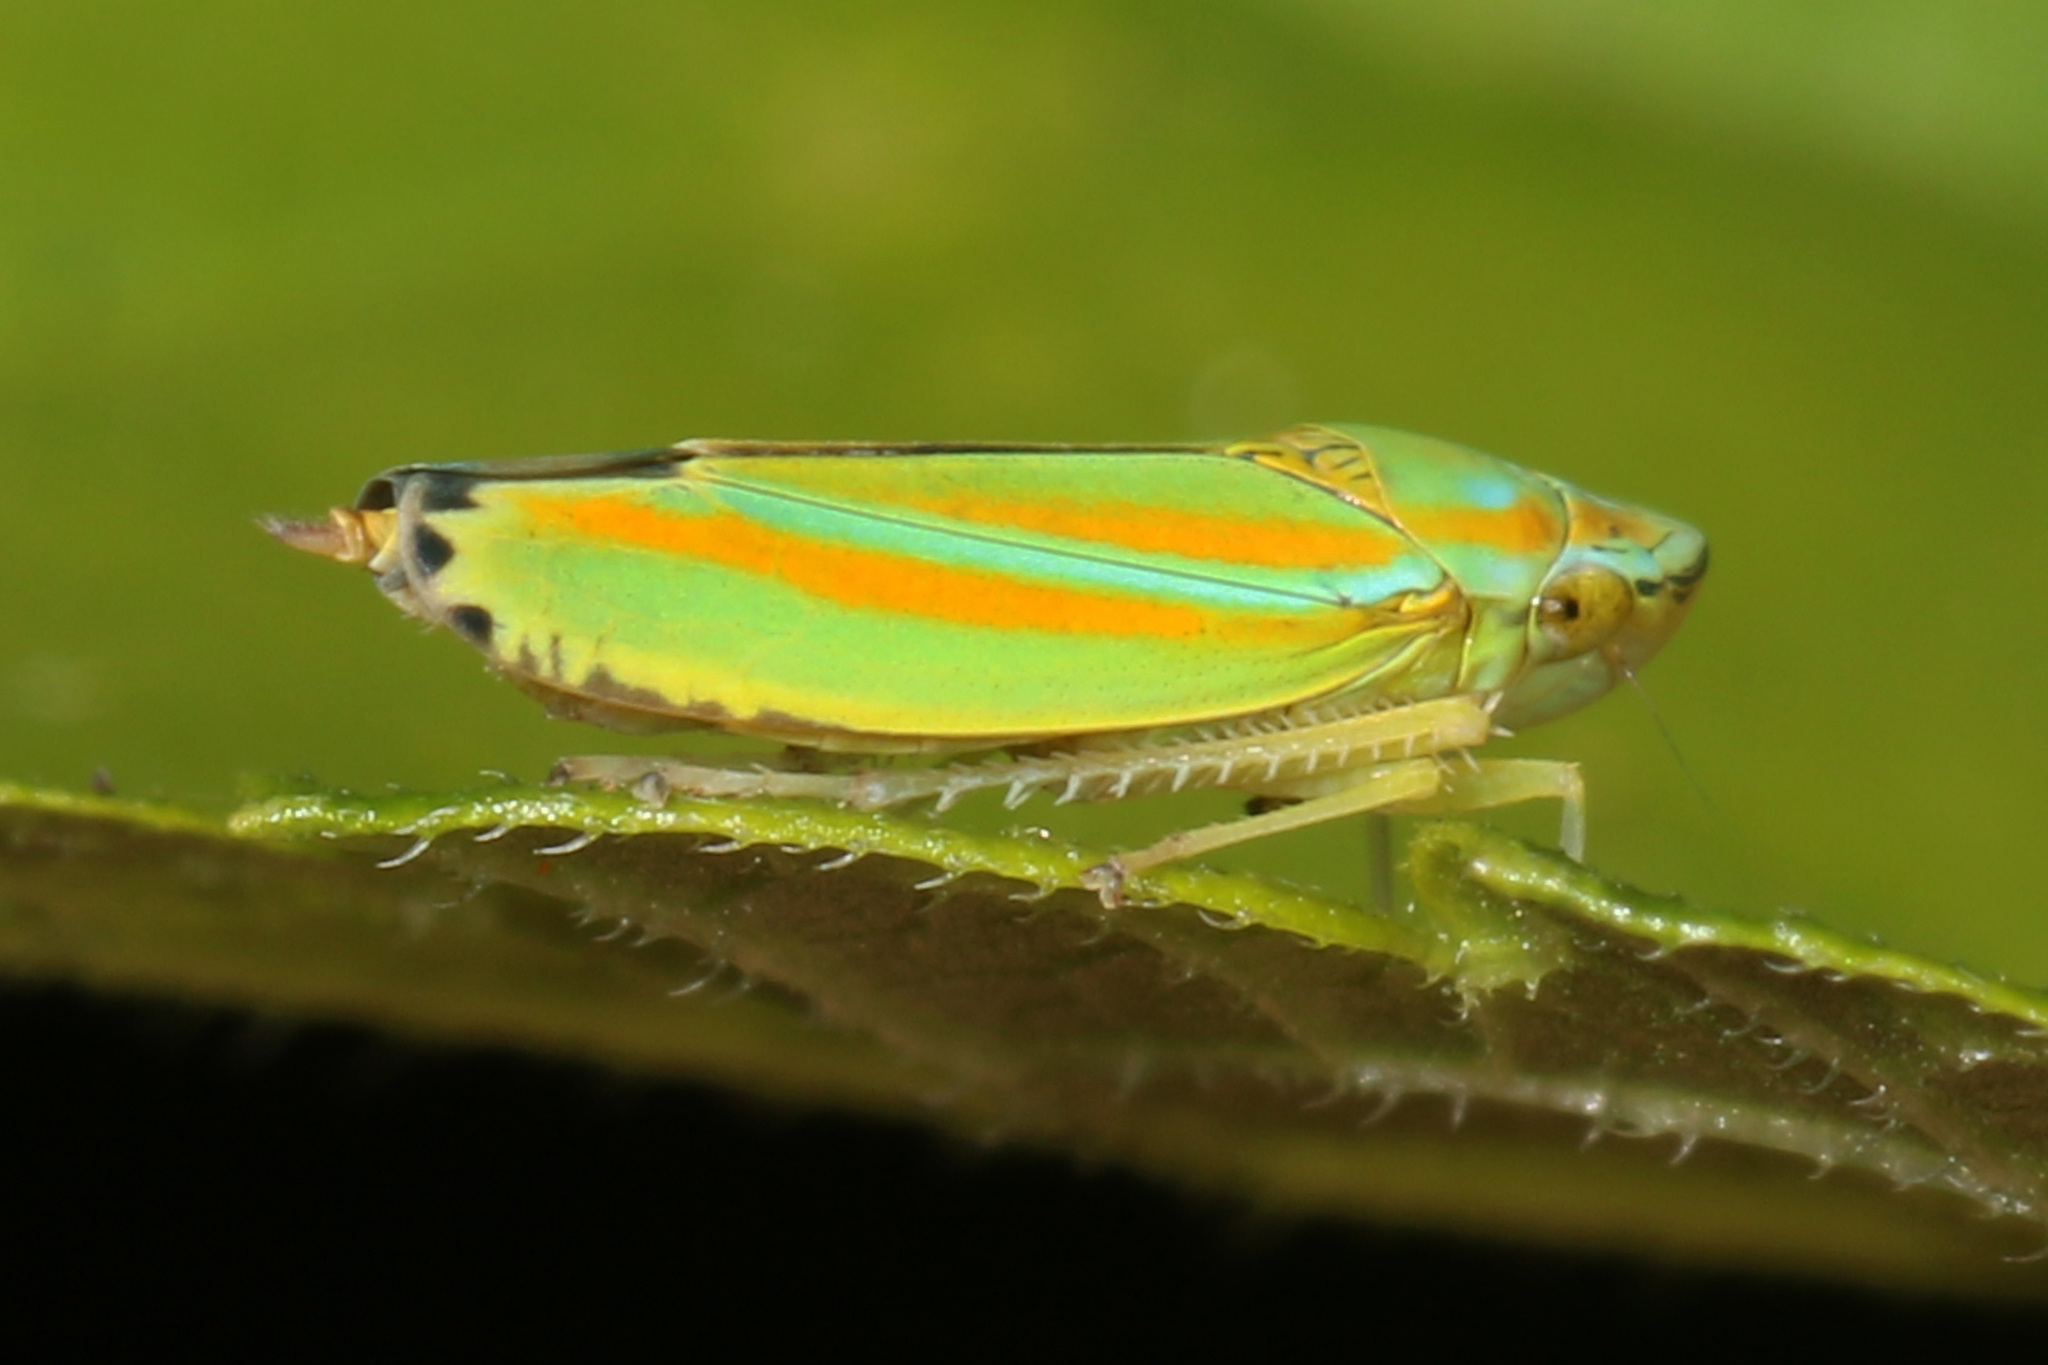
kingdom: Animalia
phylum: Arthropoda
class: Insecta
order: Hemiptera
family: Cicadellidae
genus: Graphocephala
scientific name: Graphocephala versuta
